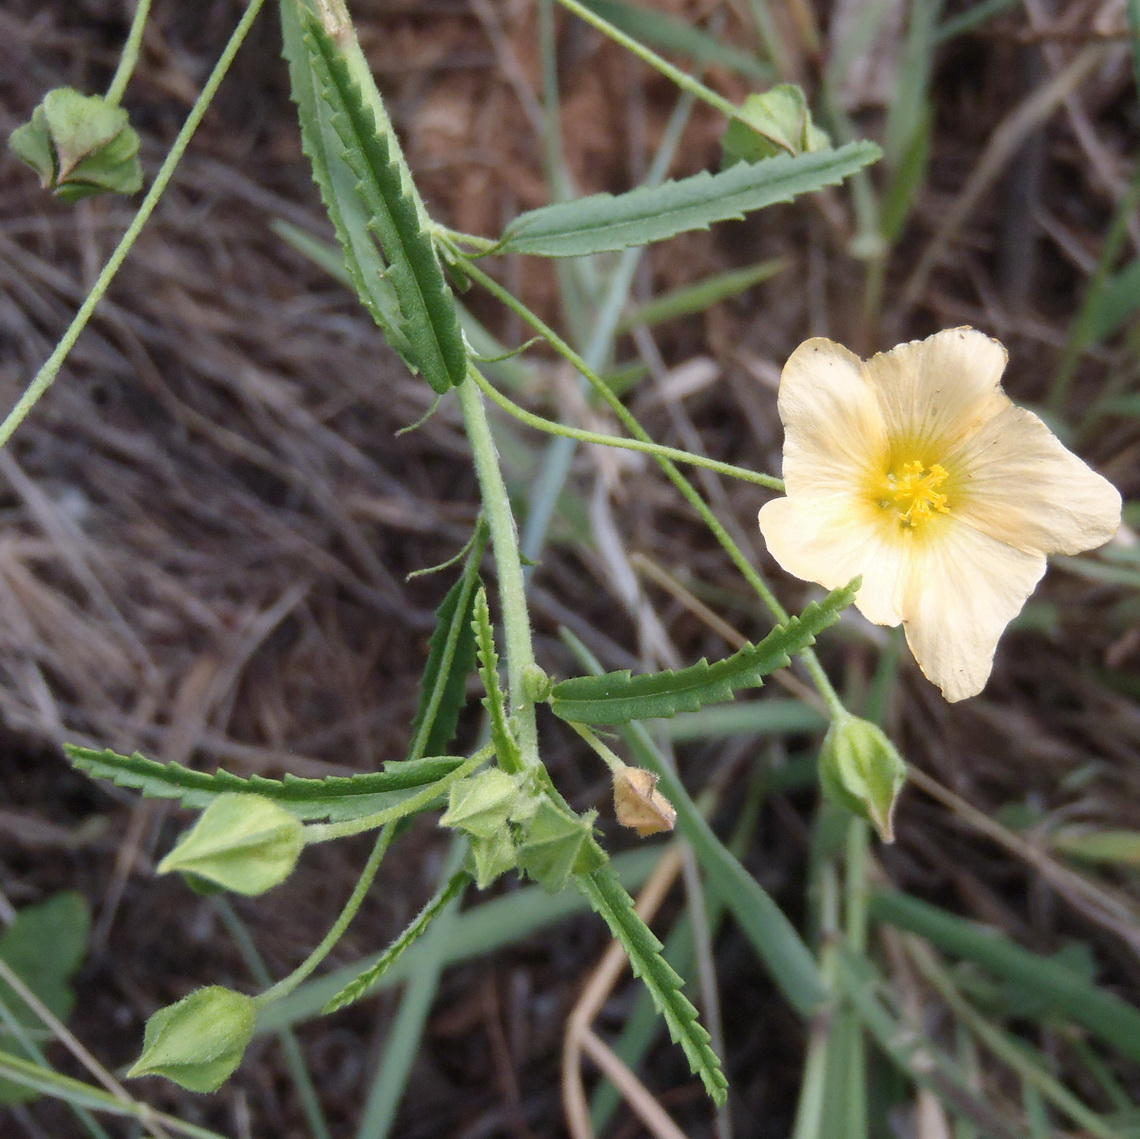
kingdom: Plantae
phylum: Tracheophyta
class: Magnoliopsida
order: Malvales
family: Malvaceae
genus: Sida
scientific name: Sida lancifolia
